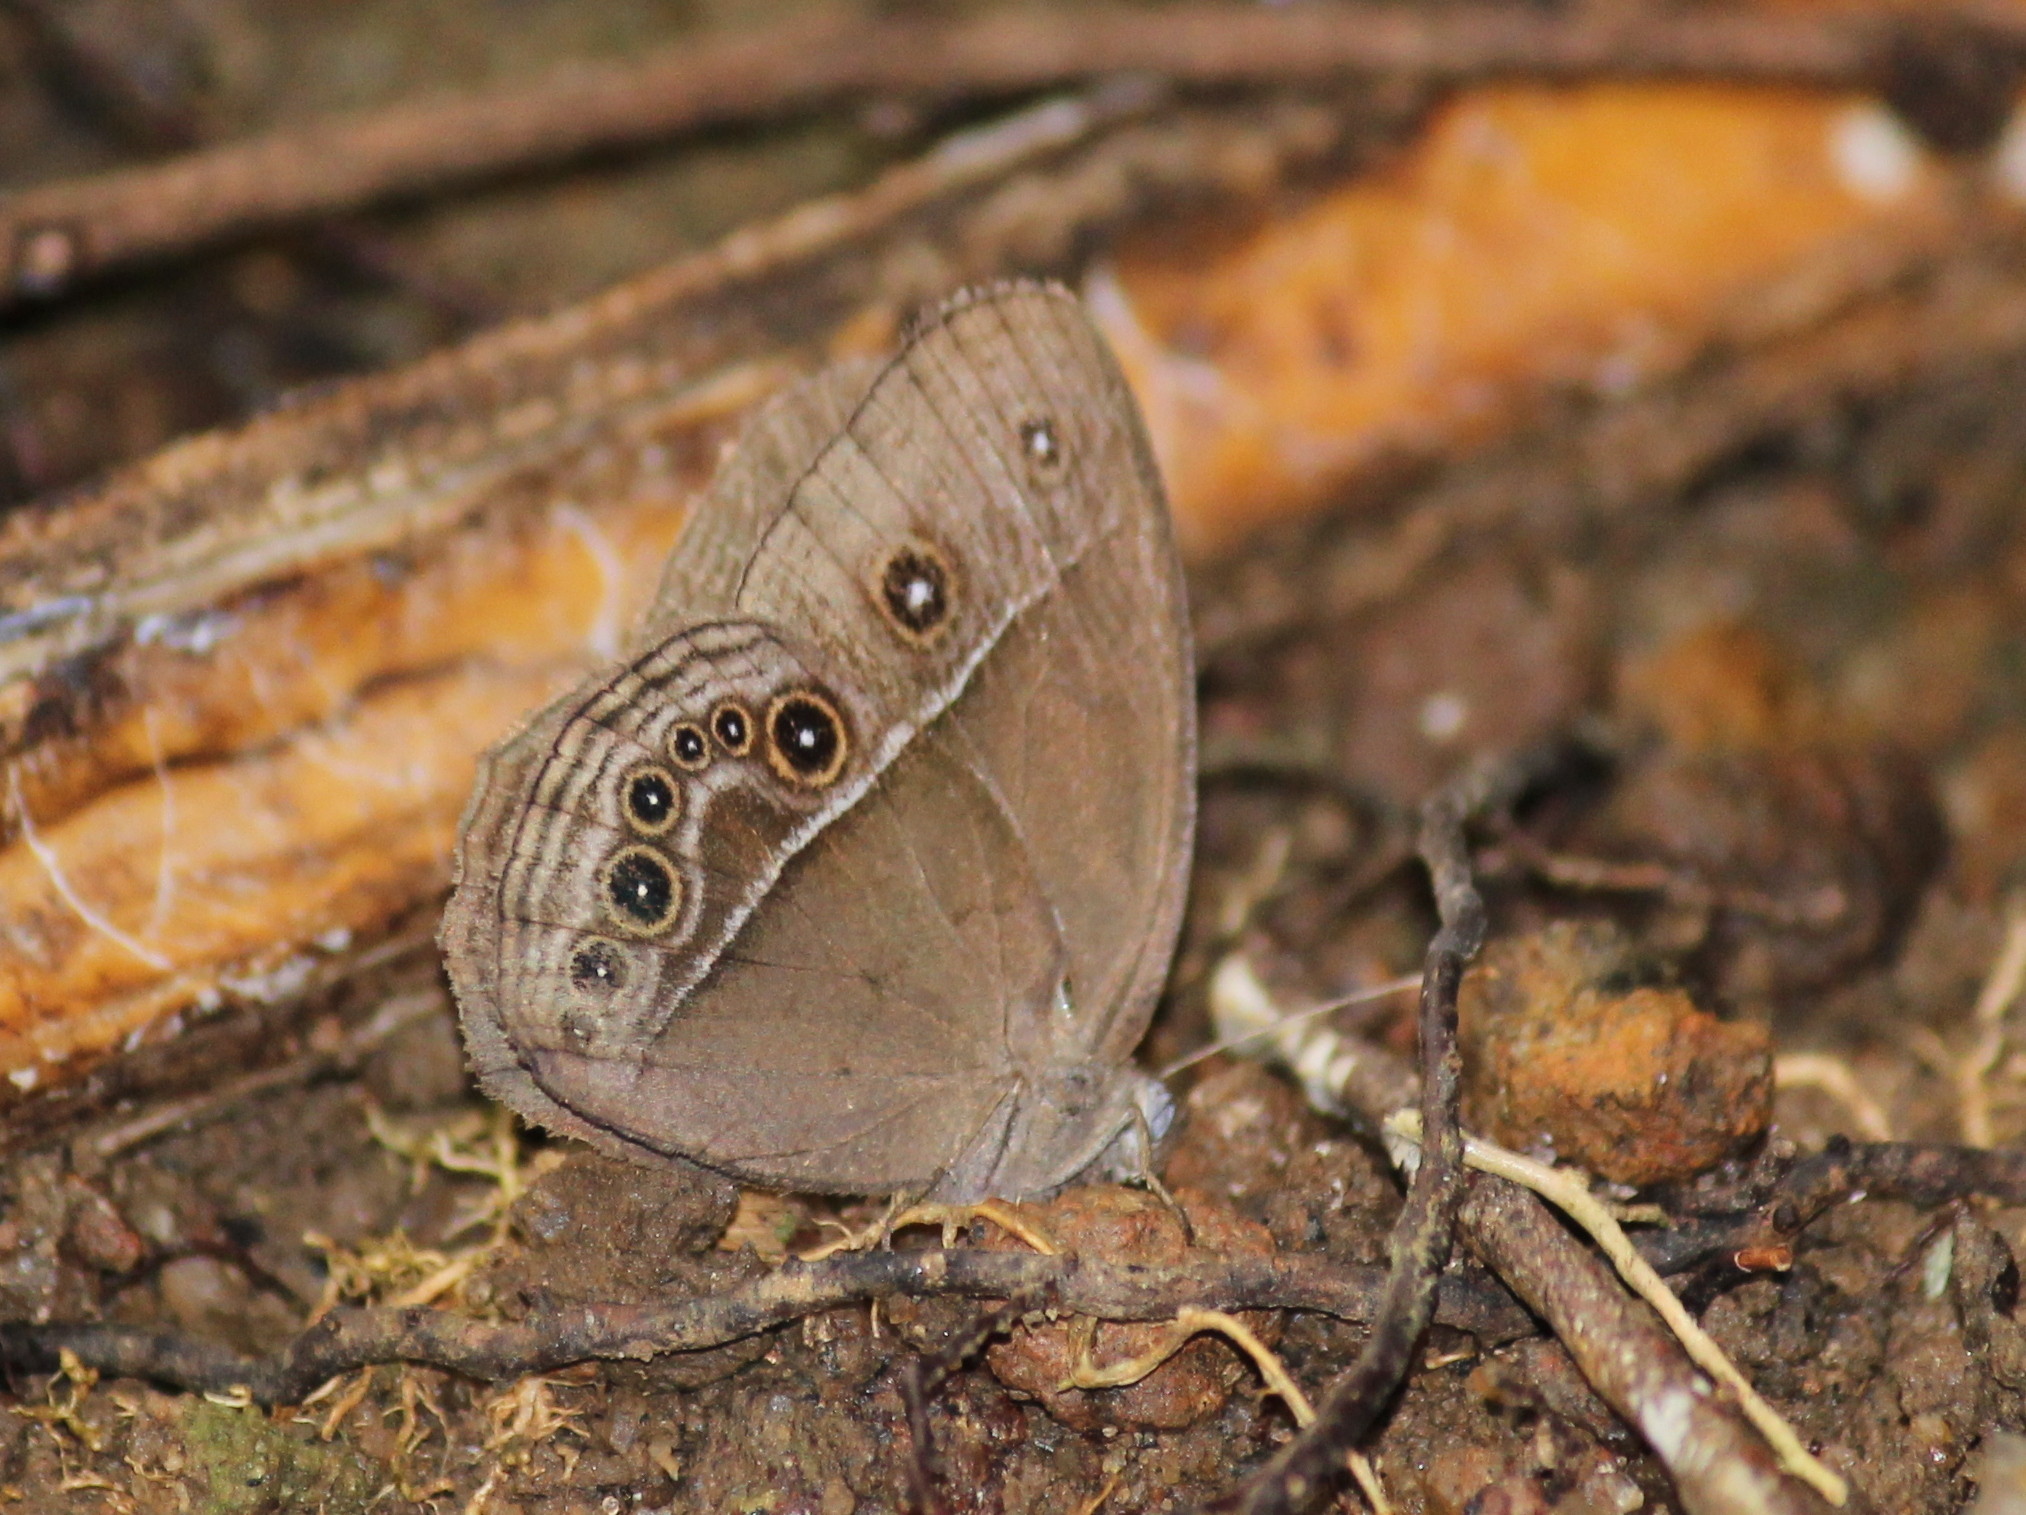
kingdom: Animalia
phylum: Arthropoda
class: Insecta
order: Lepidoptera
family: Nymphalidae
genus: Mycalesis
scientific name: Mycalesis perseus
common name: Dingy bushbrown
